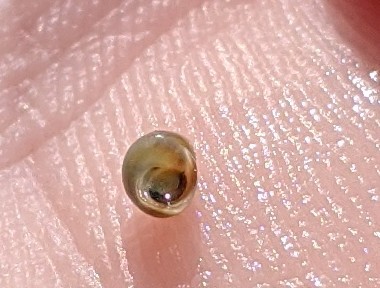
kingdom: Animalia
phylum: Mollusca
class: Gastropoda
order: Littorinimorpha
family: Littorinidae
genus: Lacuna
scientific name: Lacuna vincta
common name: Banded chink shell
